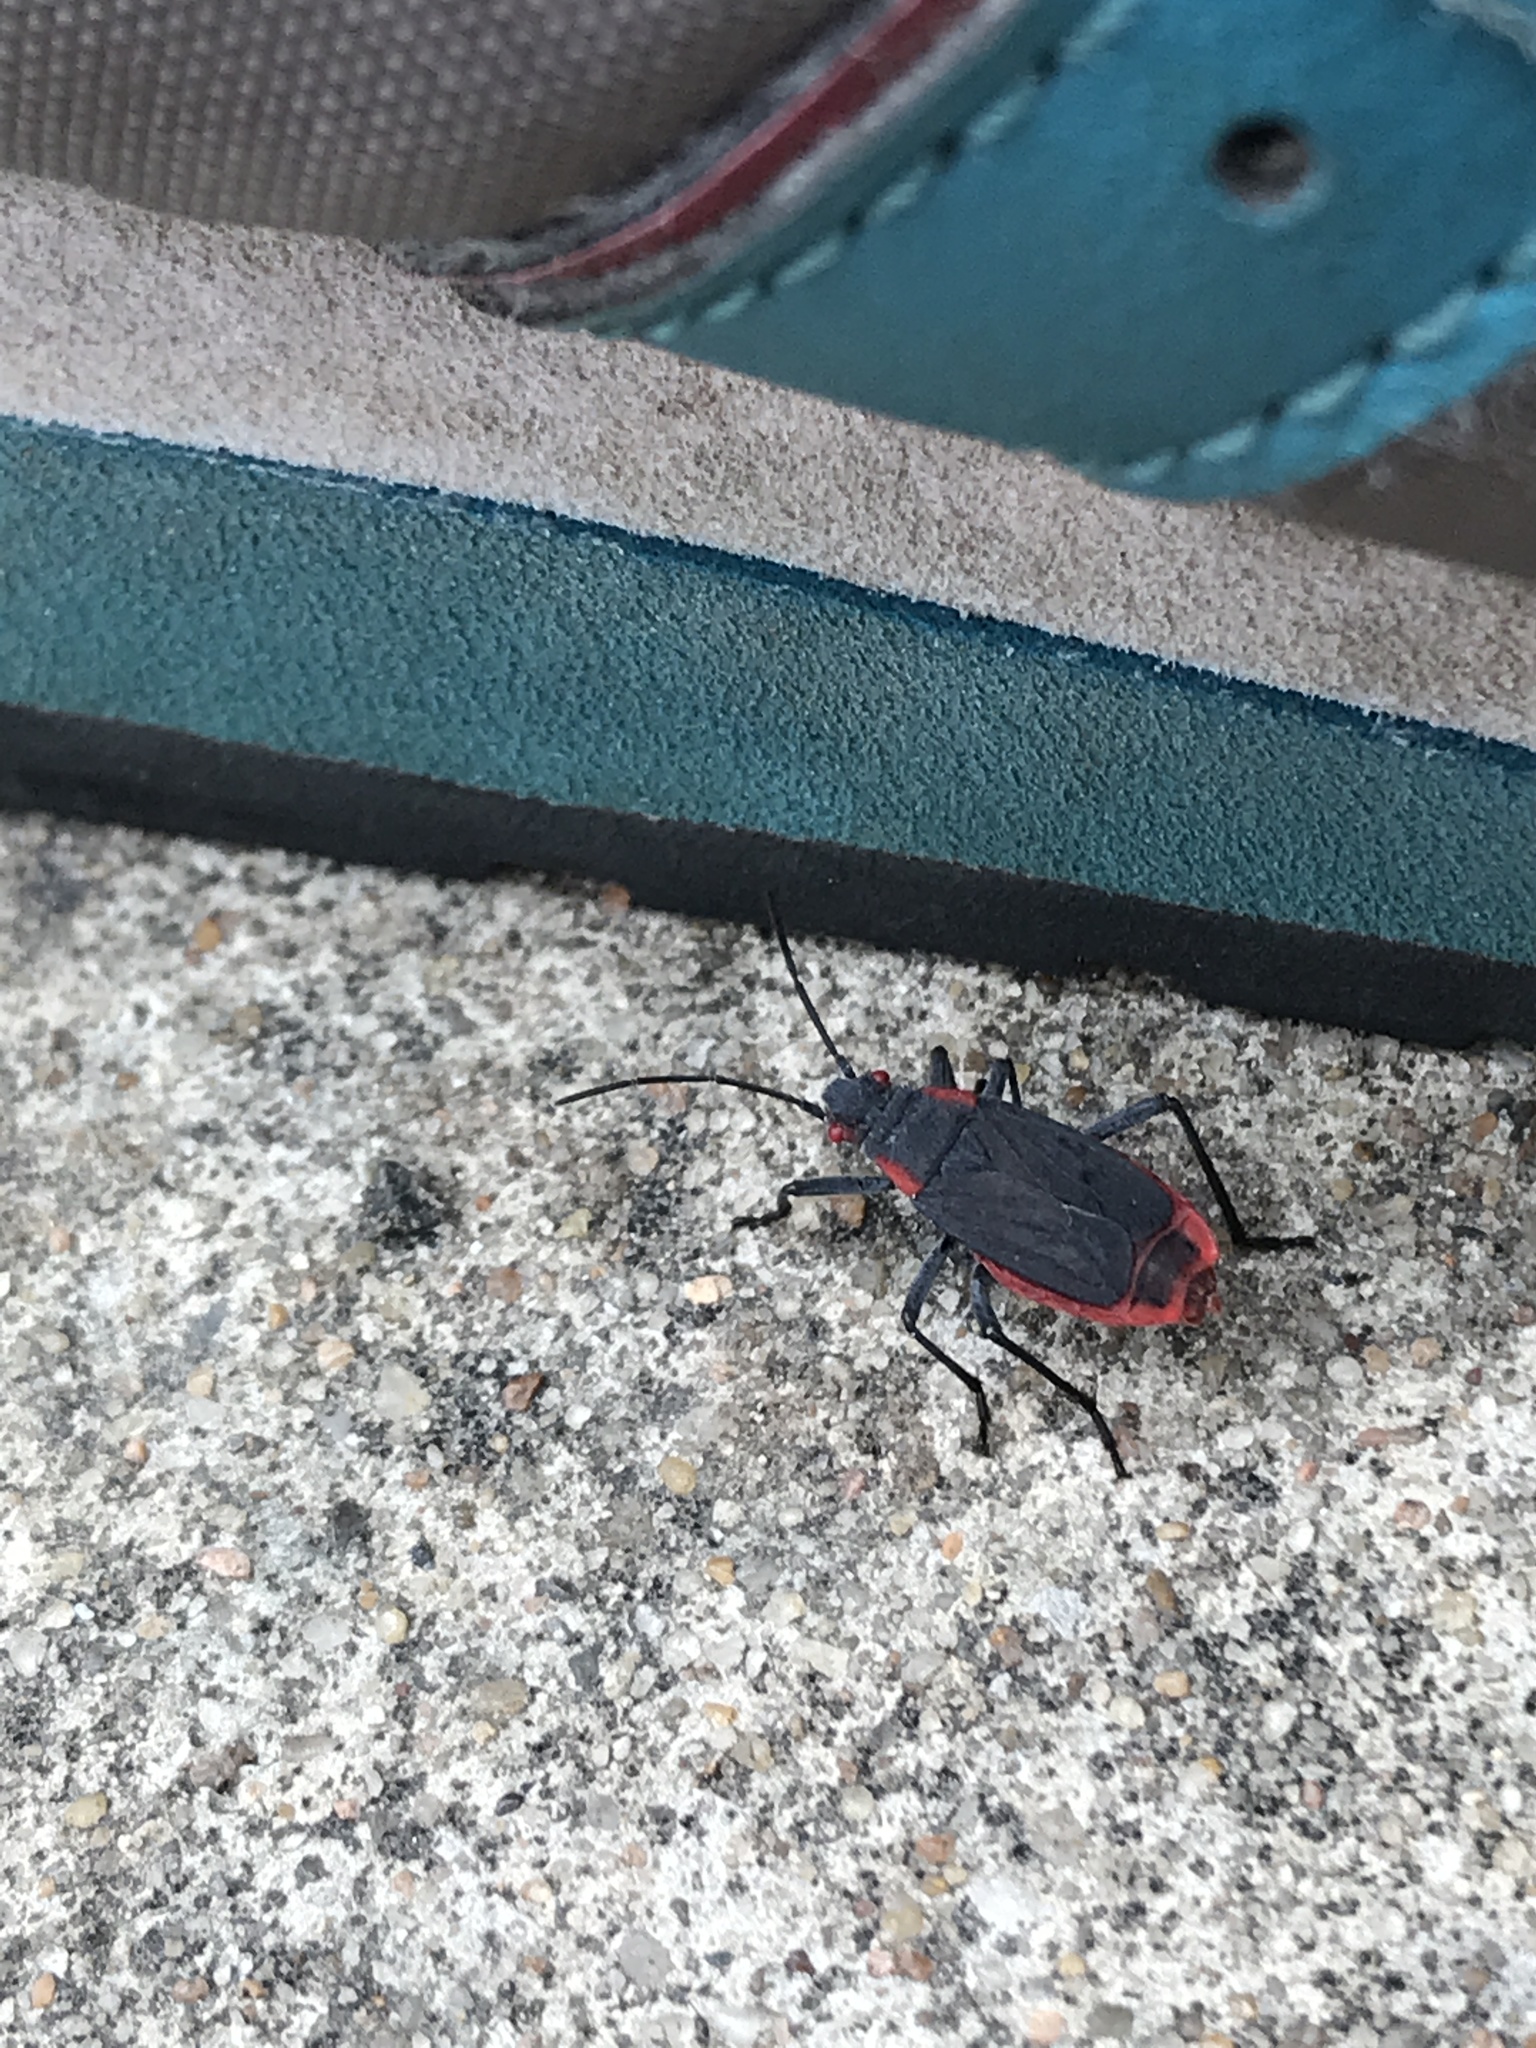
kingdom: Animalia
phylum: Arthropoda
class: Insecta
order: Hemiptera
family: Rhopalidae
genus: Jadera
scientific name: Jadera haematoloma
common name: Red-shouldered bug
